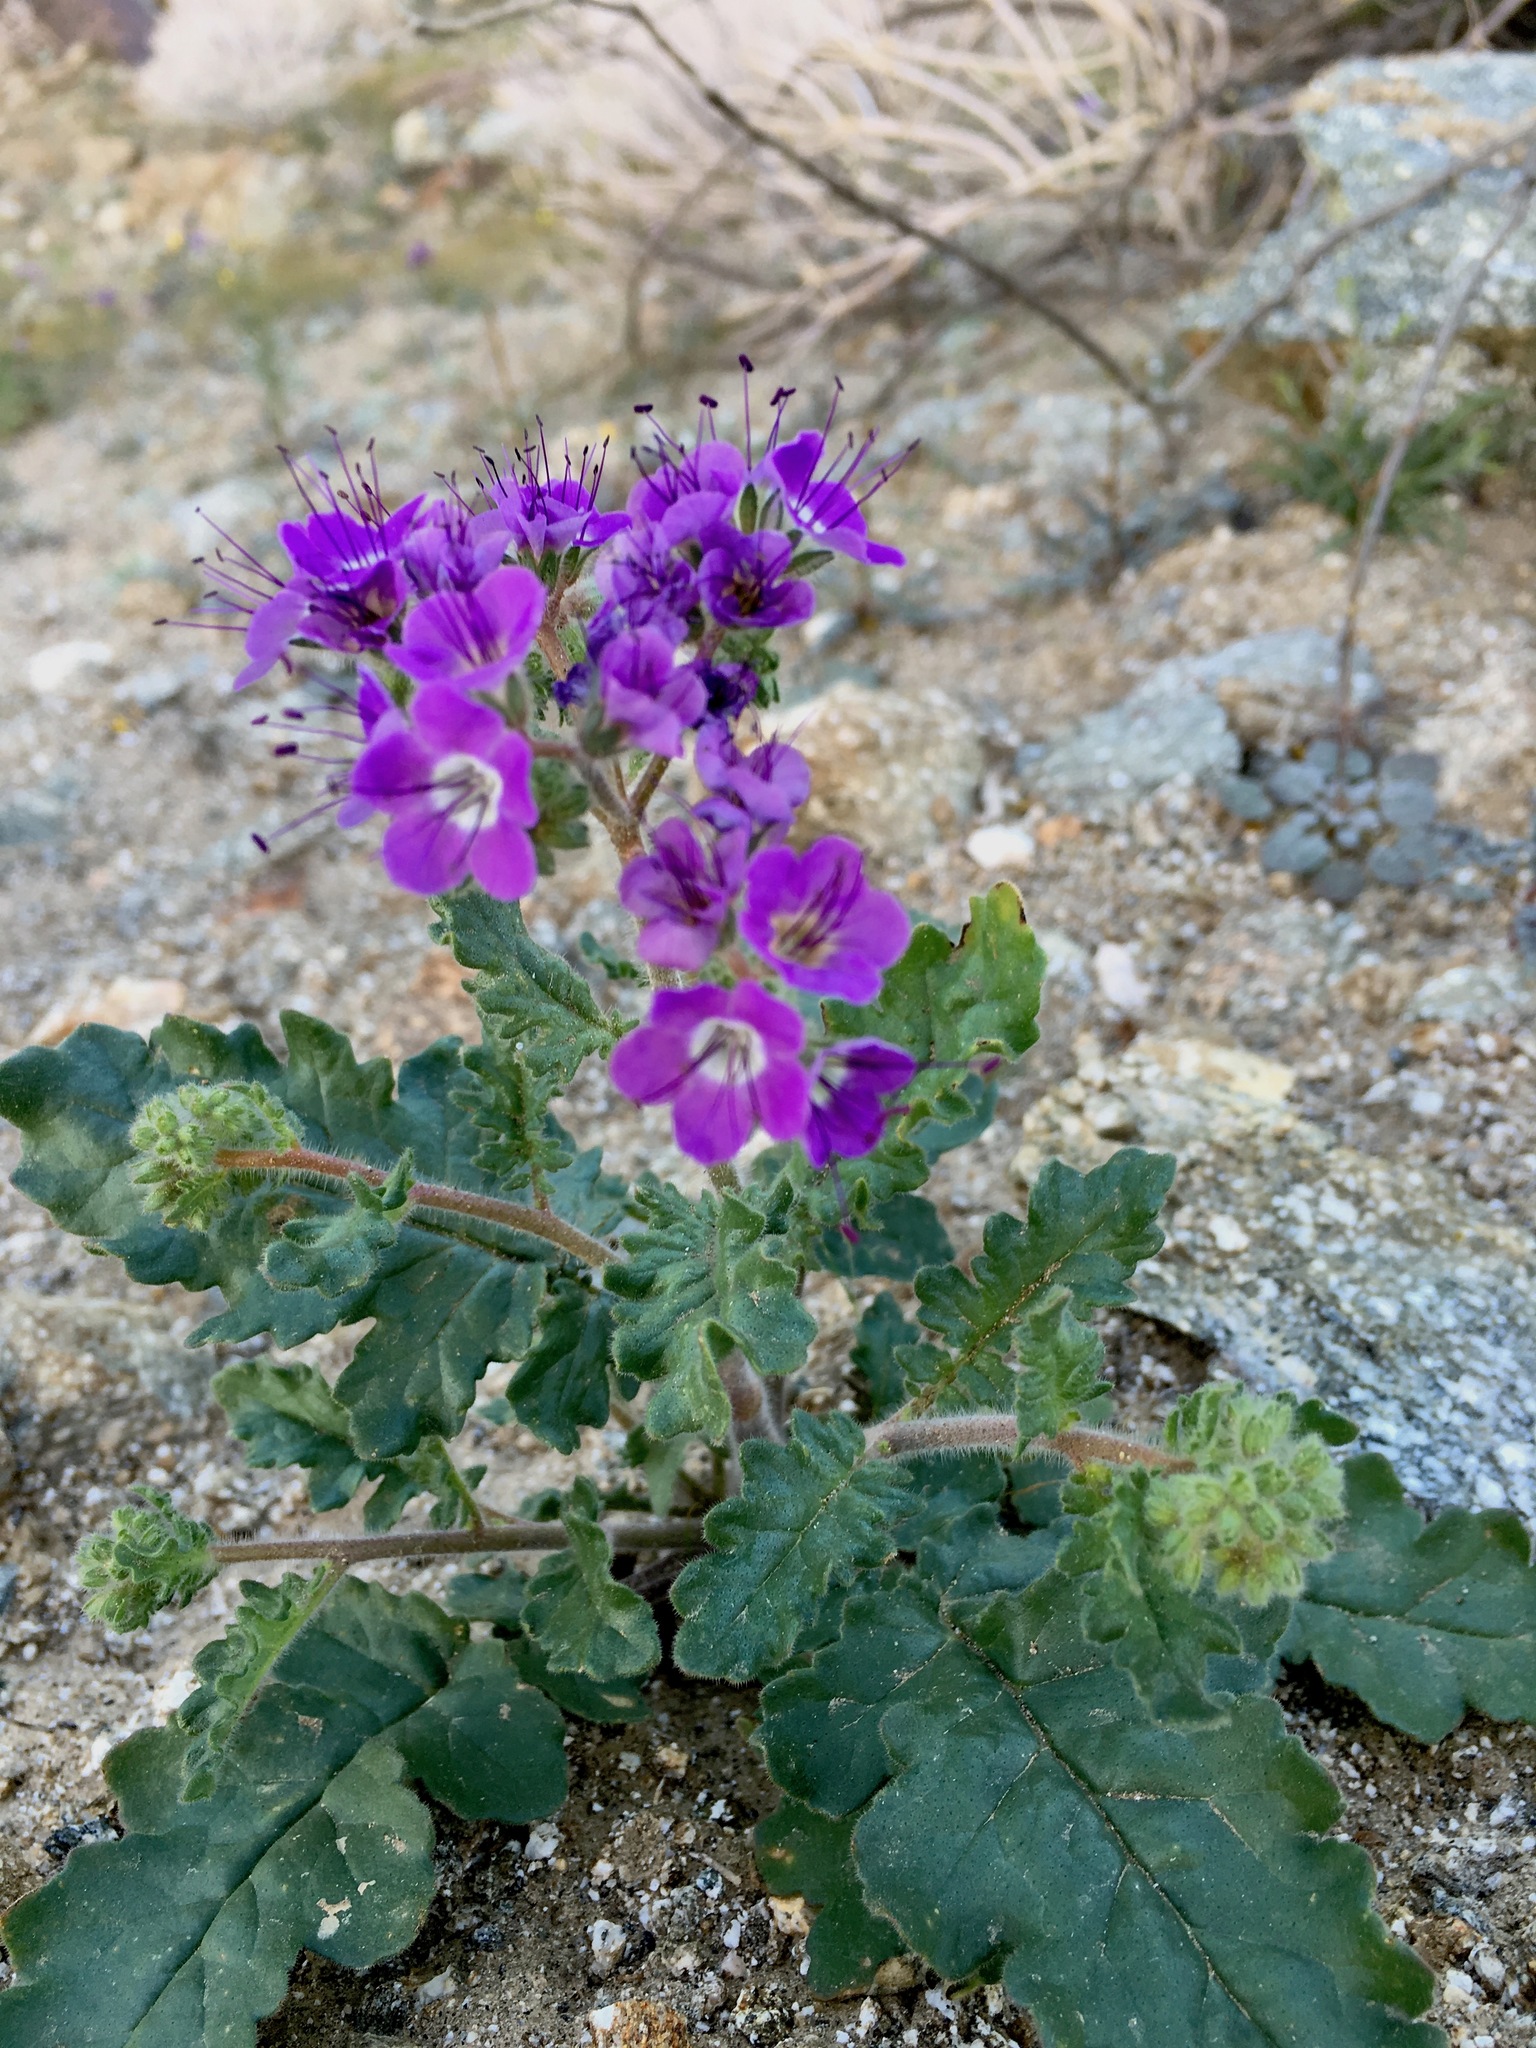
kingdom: Plantae
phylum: Tracheophyta
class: Magnoliopsida
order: Boraginales
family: Hydrophyllaceae
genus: Phacelia
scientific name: Phacelia crenulata
